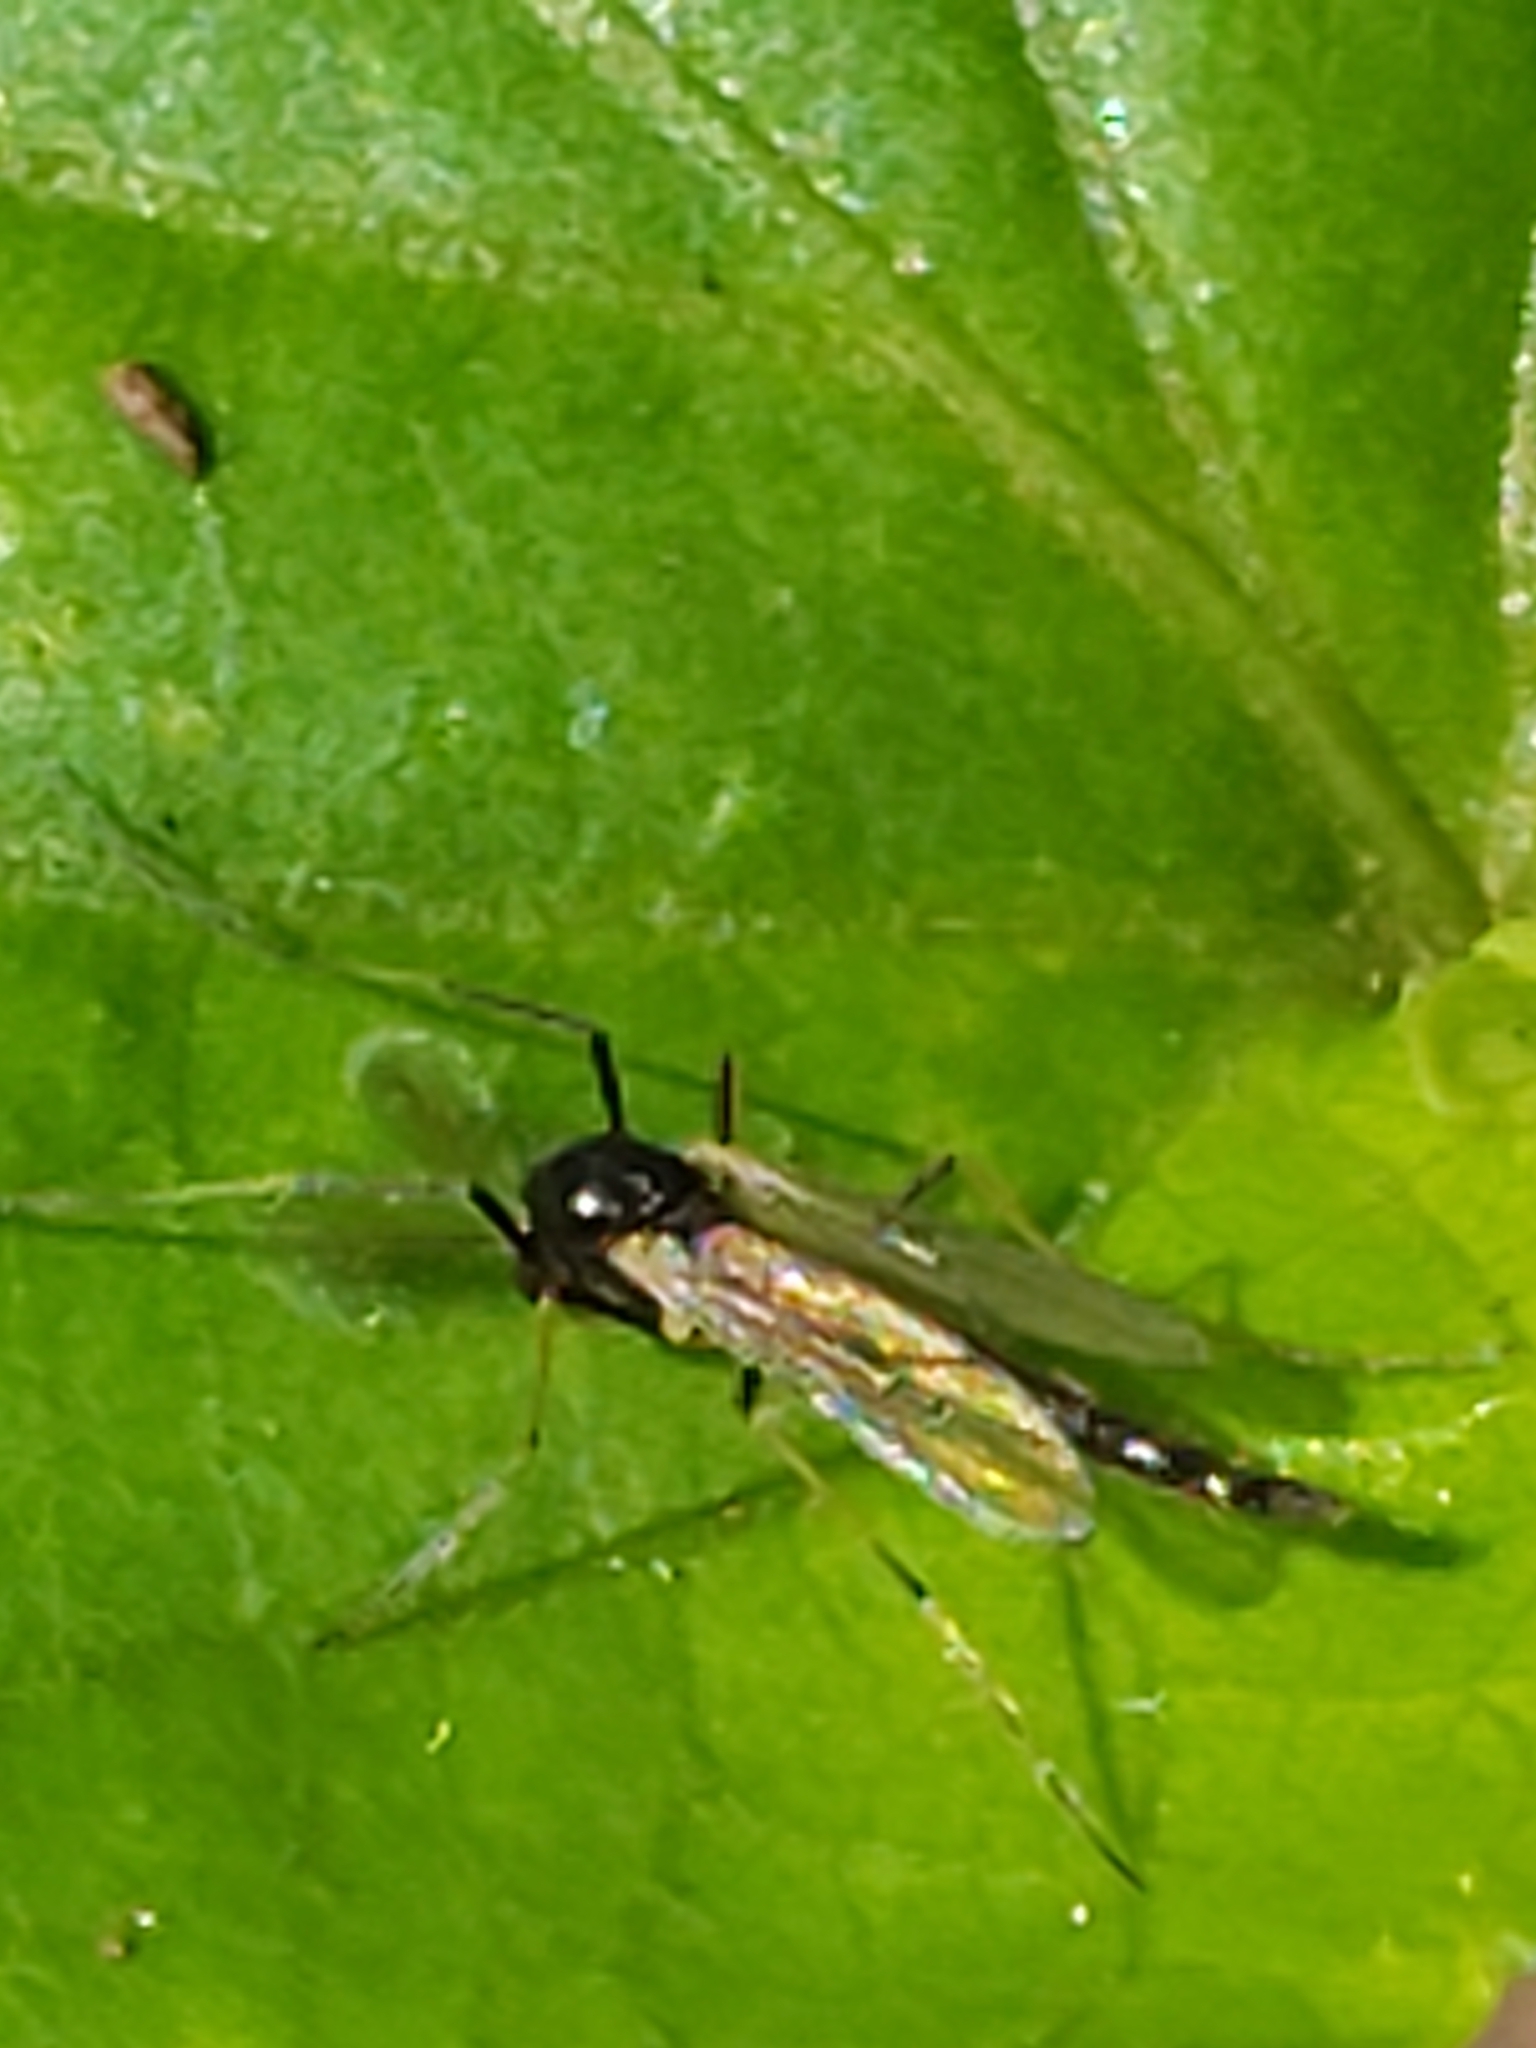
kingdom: Animalia
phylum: Arthropoda
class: Insecta
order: Diptera
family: Chironomidae
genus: Paratendipes
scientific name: Paratendipes albimanus
